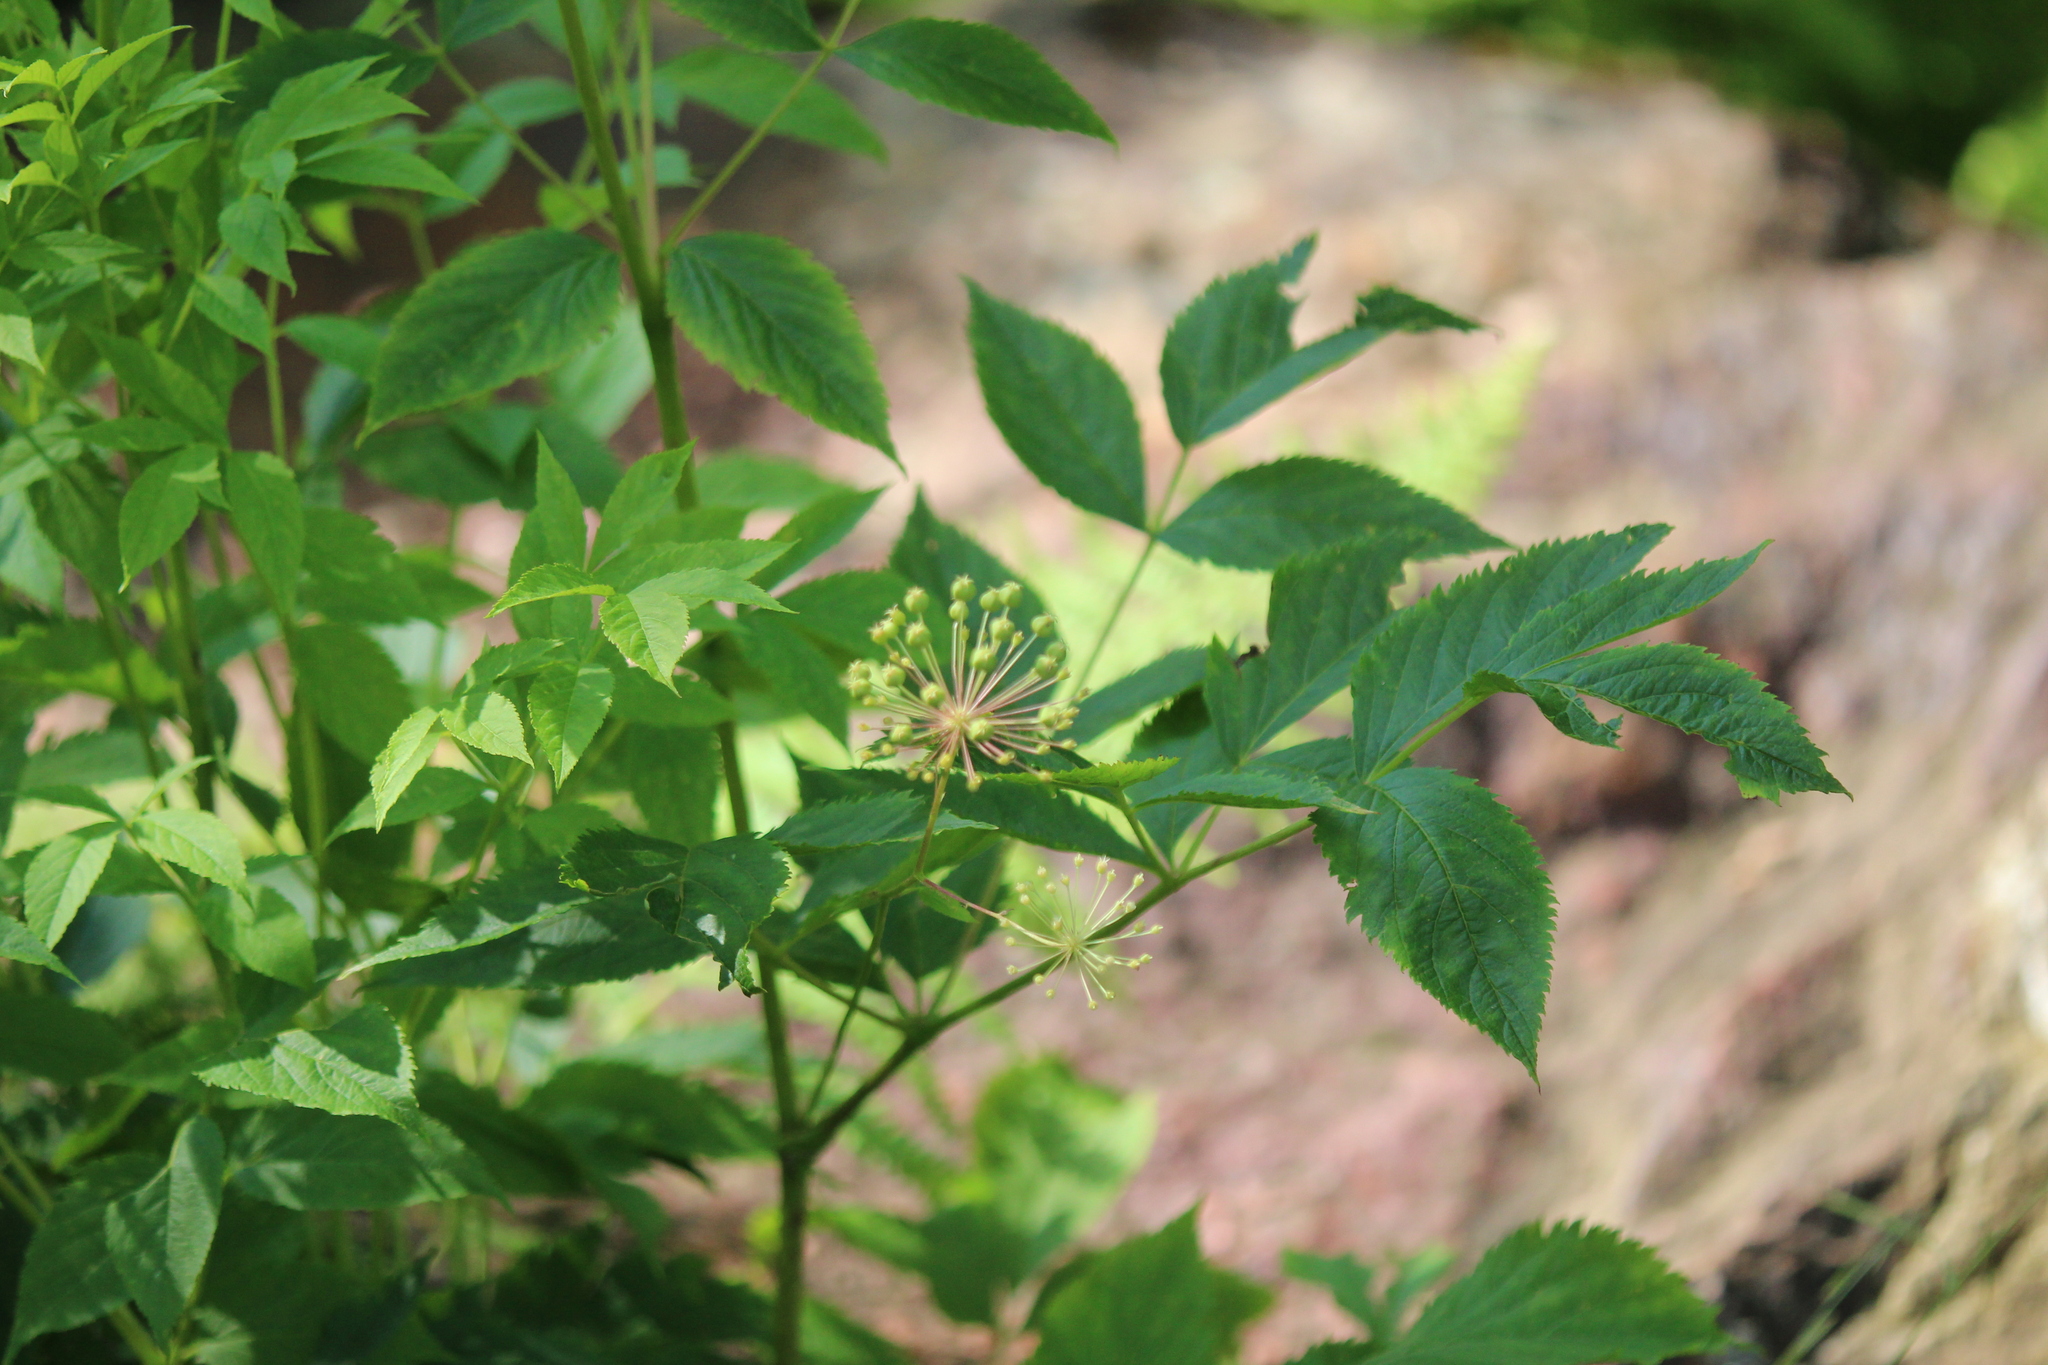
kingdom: Plantae
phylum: Tracheophyta
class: Magnoliopsida
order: Apiales
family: Araliaceae
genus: Aralia
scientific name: Aralia hispida
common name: Bristly sarsaparilla
